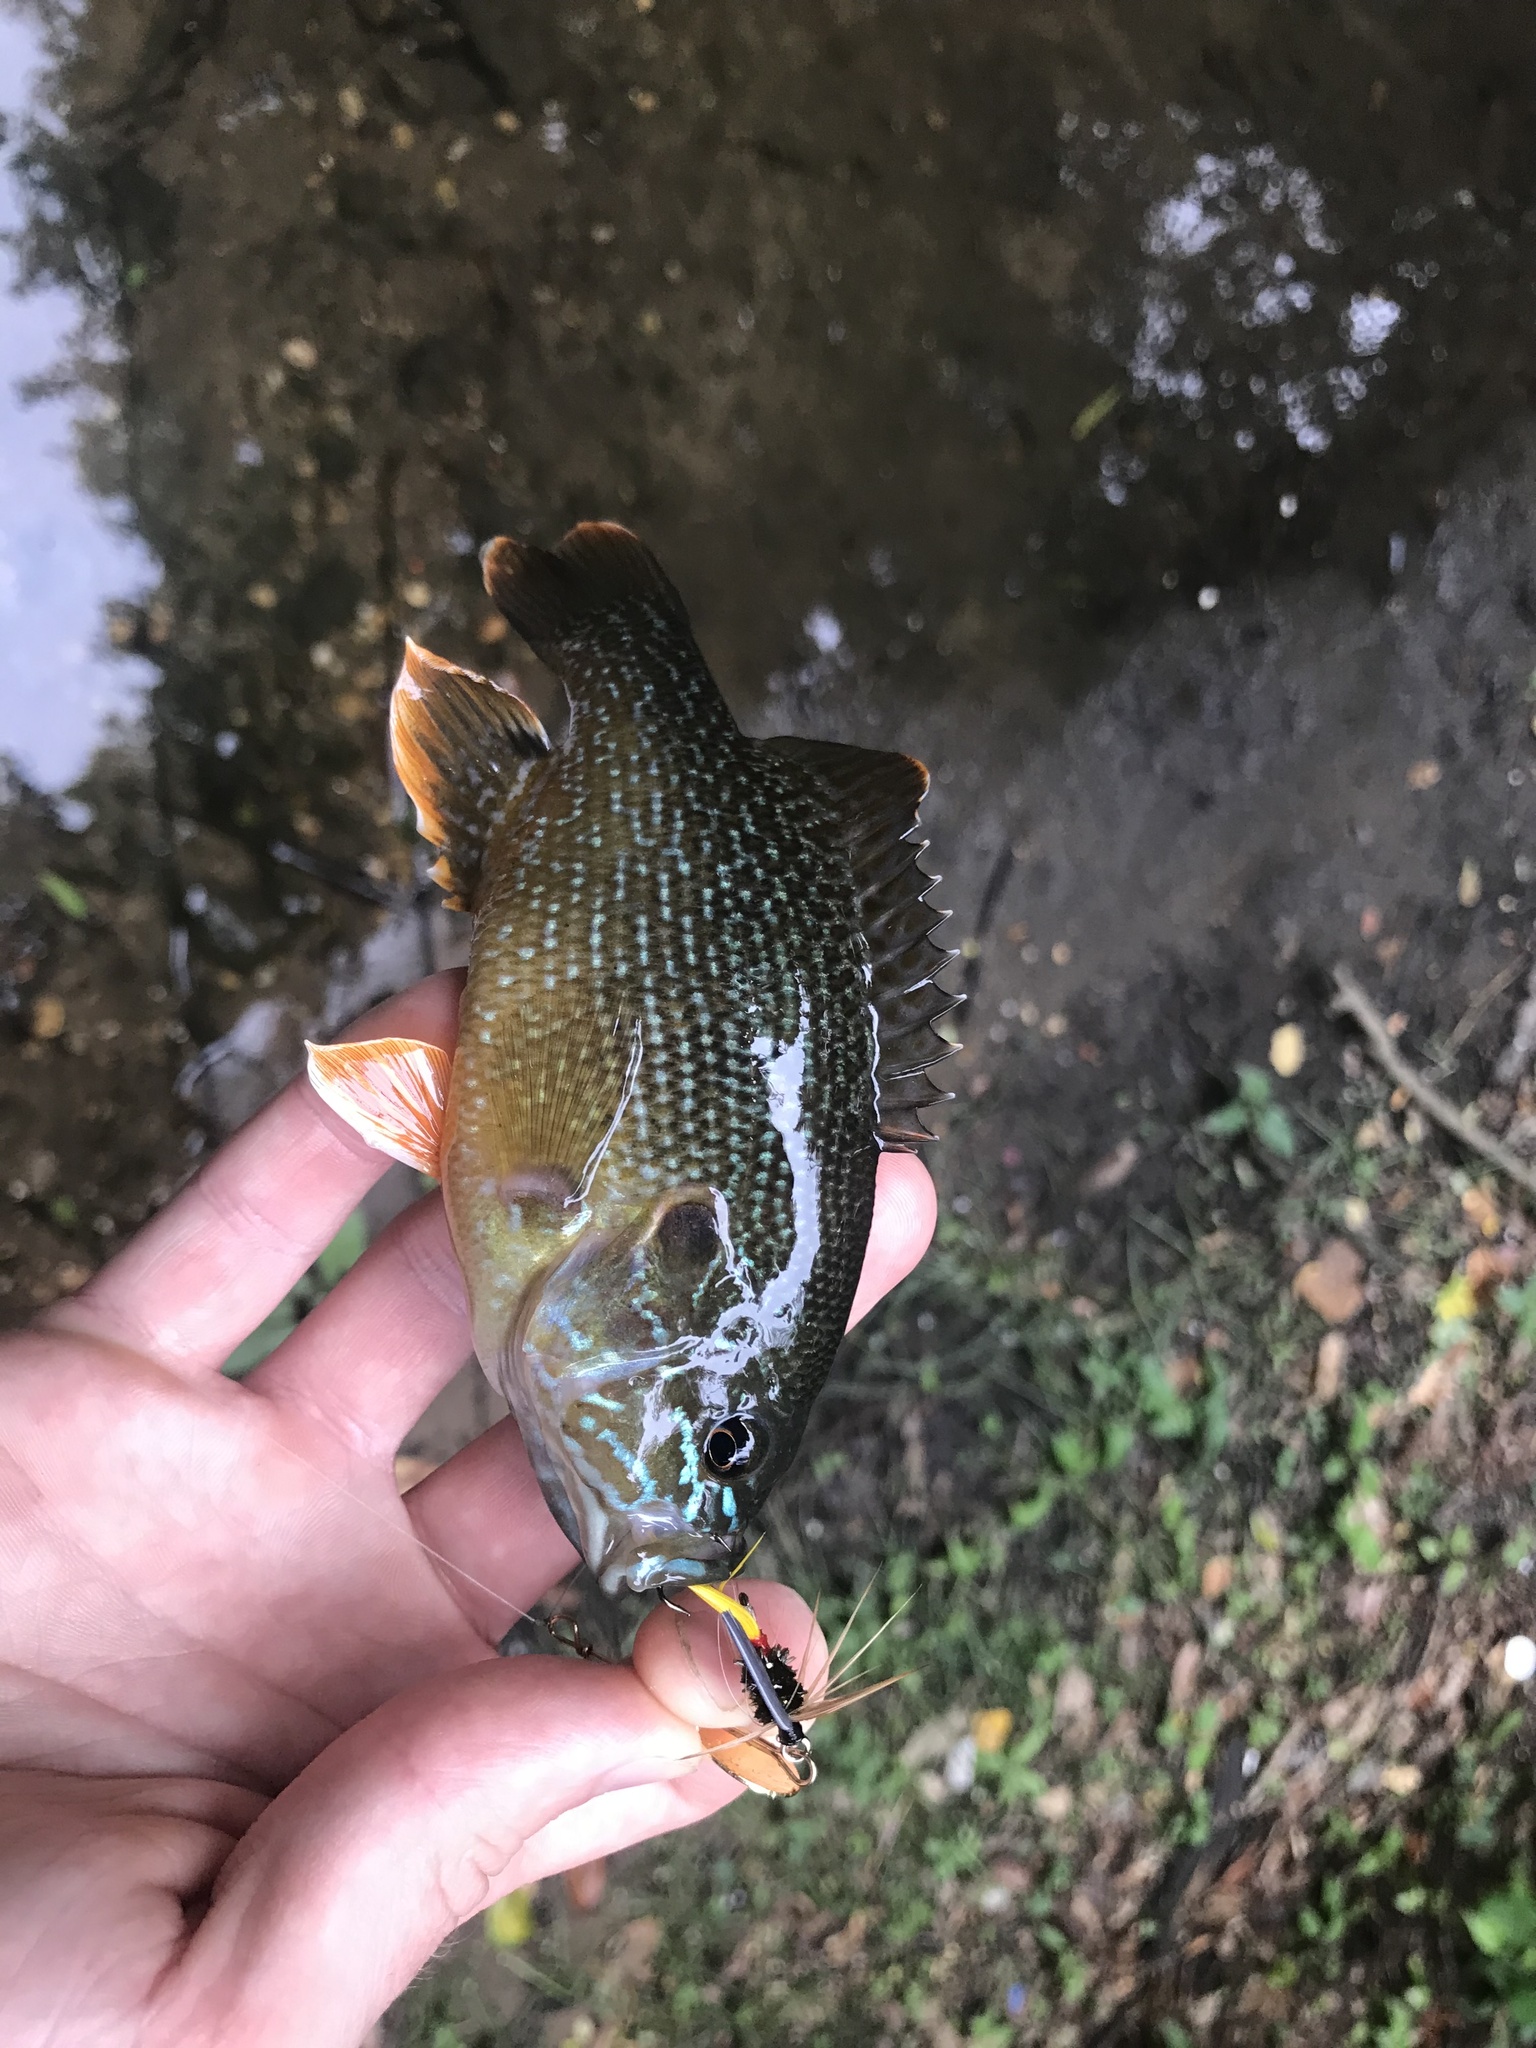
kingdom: Animalia
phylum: Chordata
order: Perciformes
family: Centrarchidae
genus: Lepomis
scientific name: Lepomis cyanellus
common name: Green sunfish
